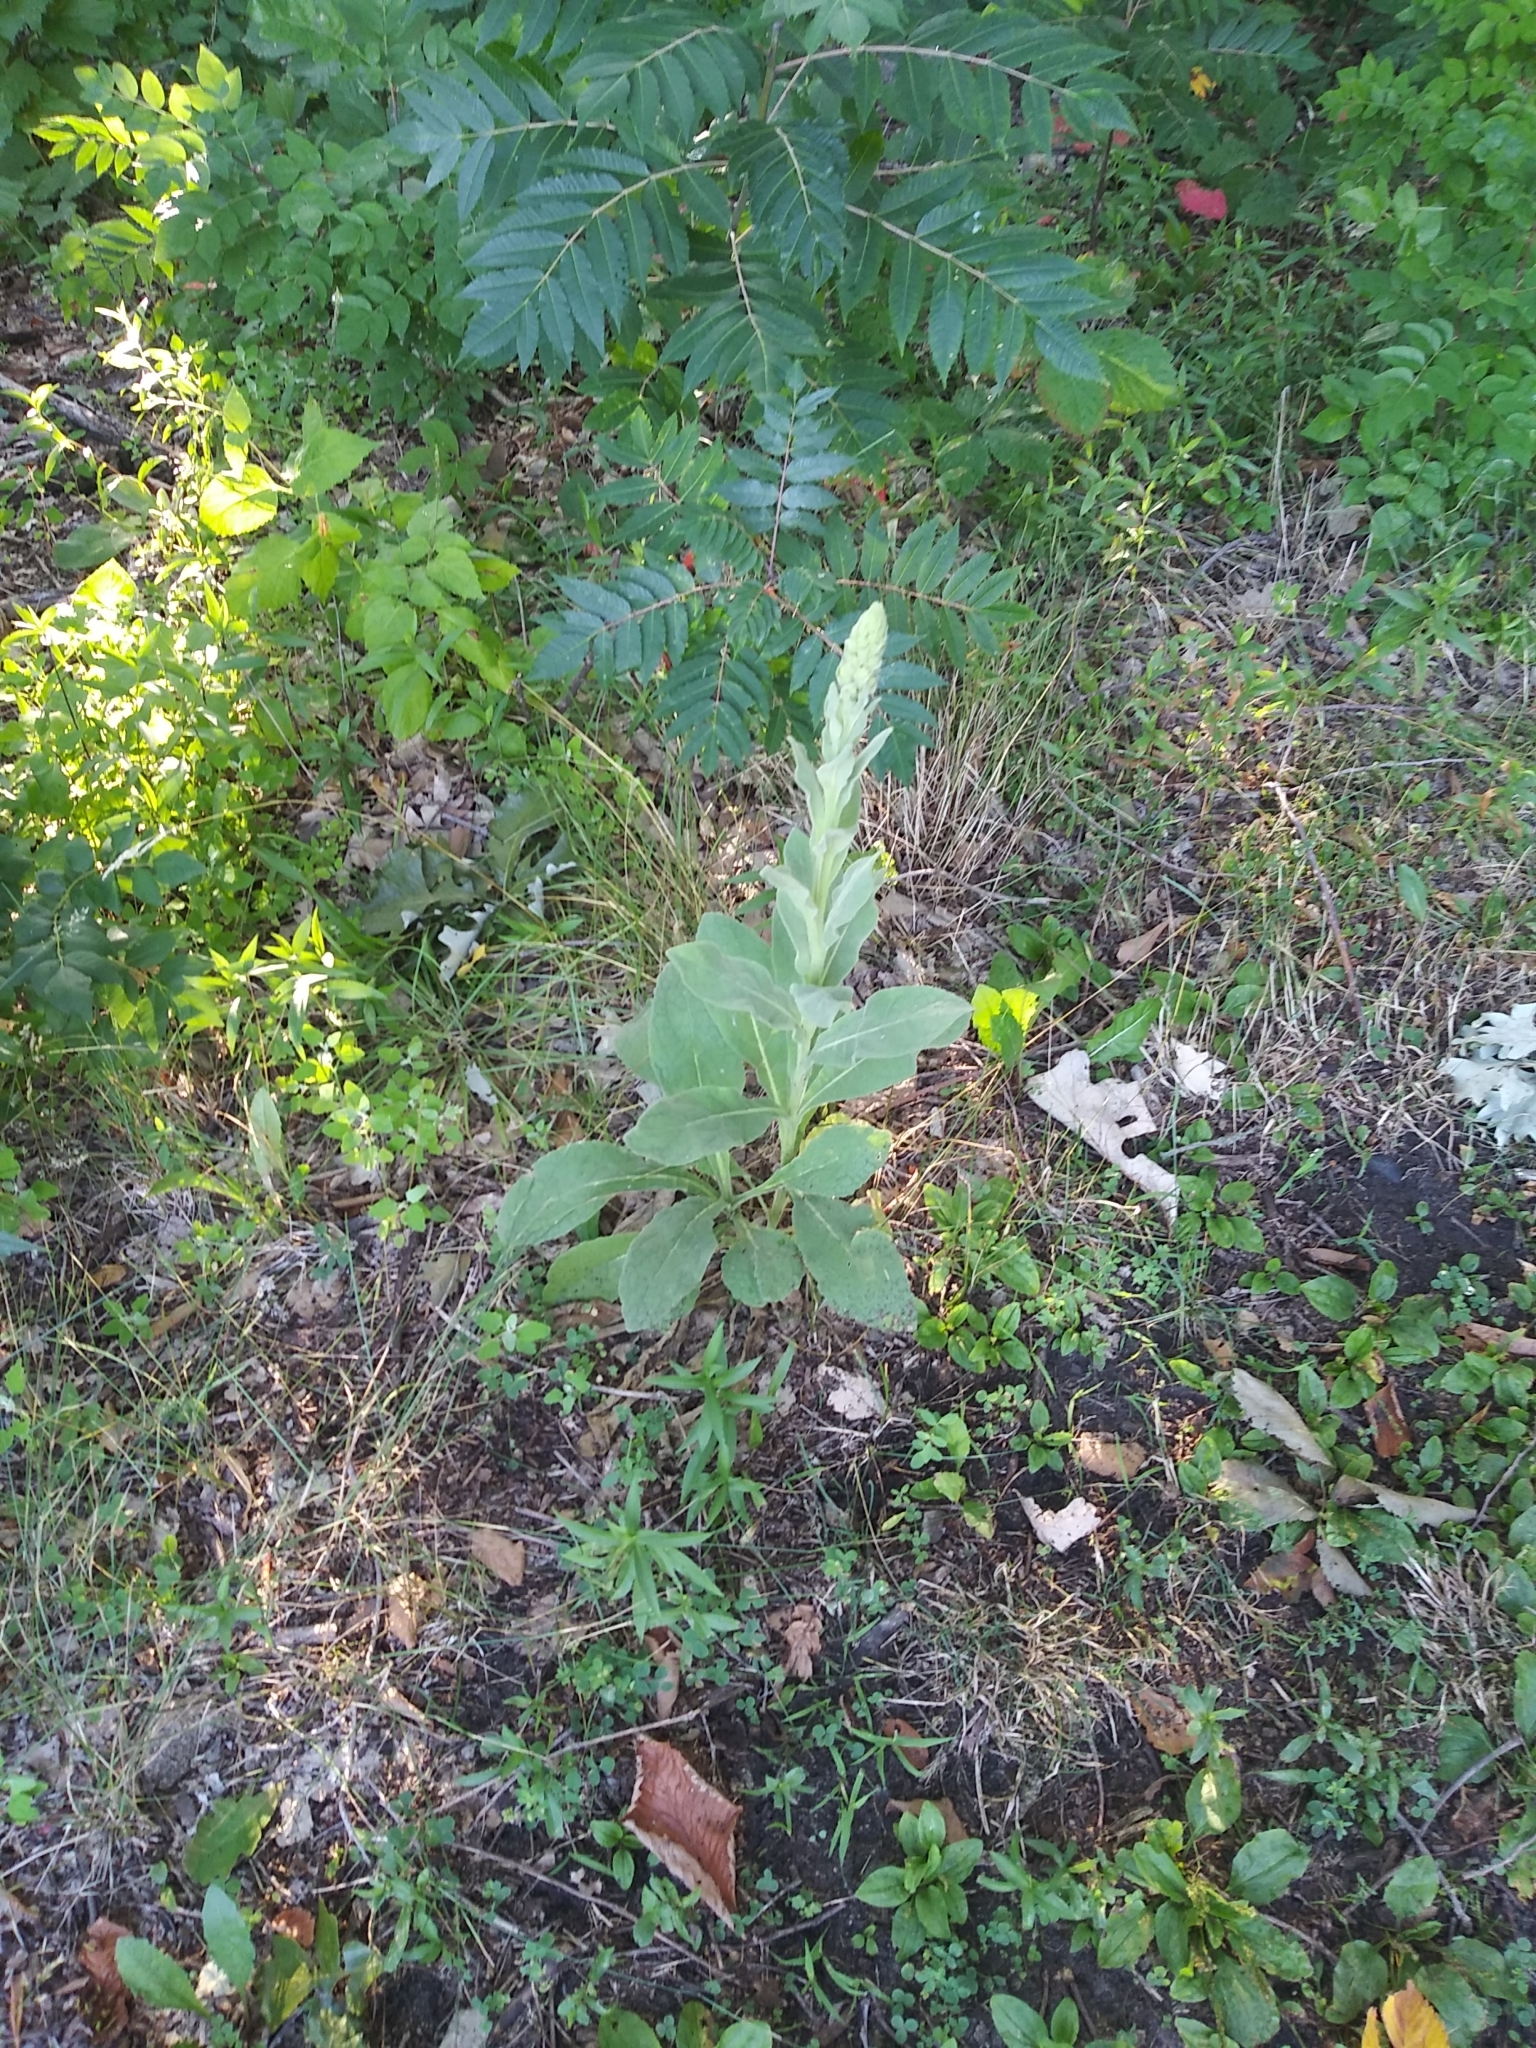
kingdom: Plantae
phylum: Tracheophyta
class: Magnoliopsida
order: Lamiales
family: Scrophulariaceae
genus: Verbascum
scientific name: Verbascum thapsus
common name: Common mullein
